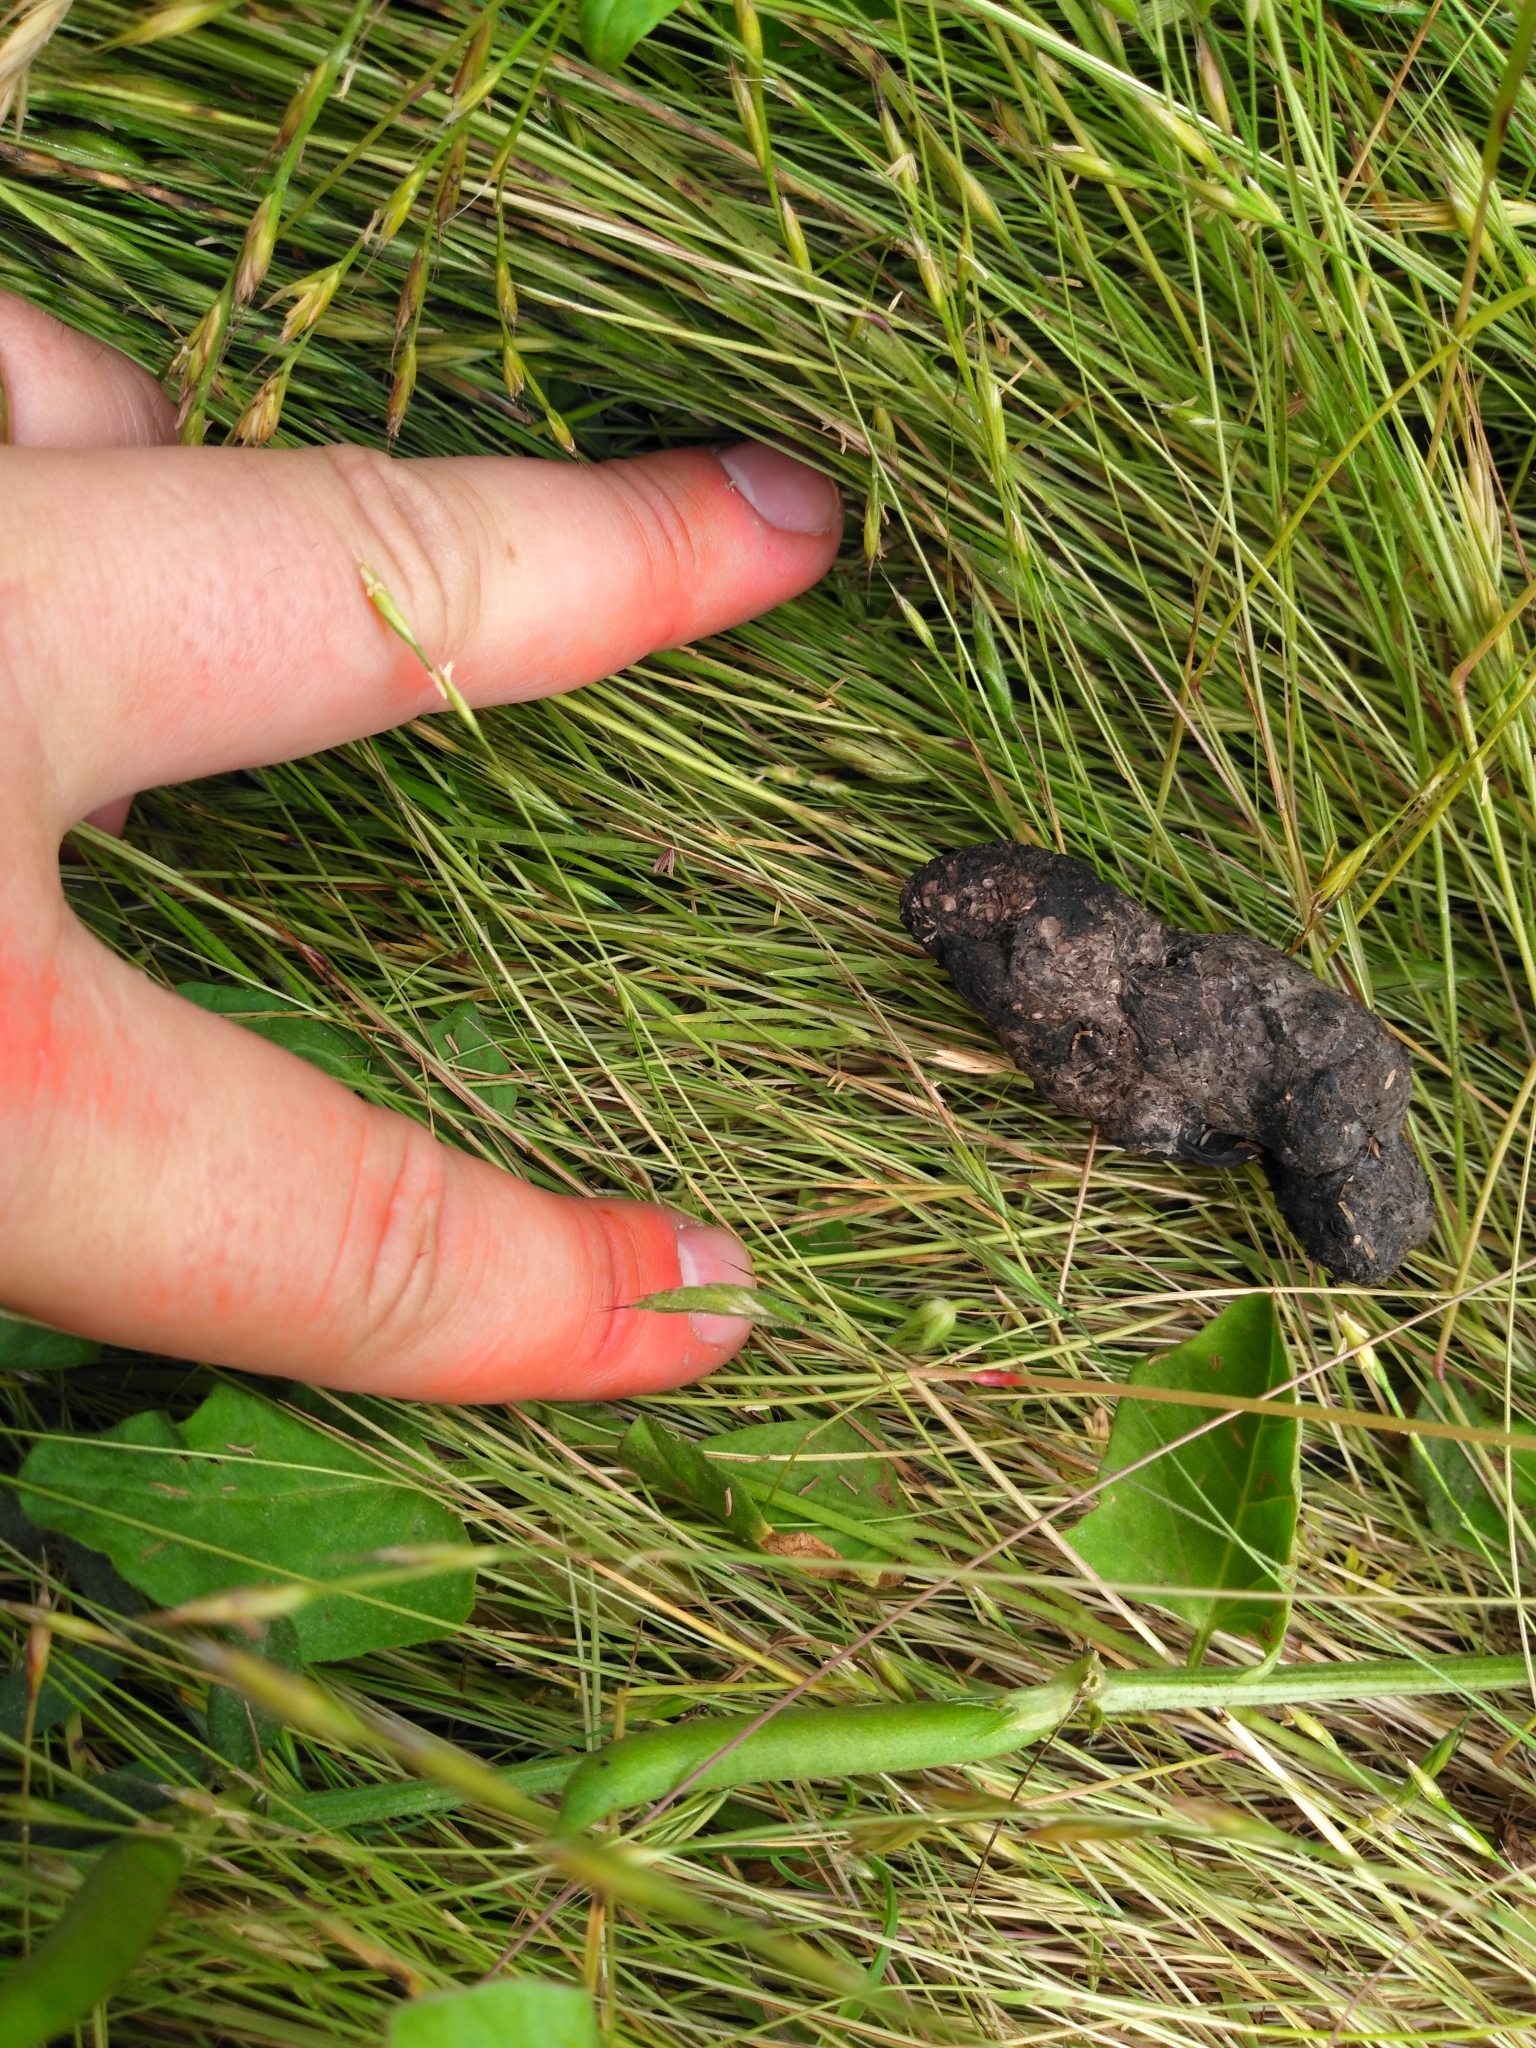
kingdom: Animalia
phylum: Chordata
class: Mammalia
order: Carnivora
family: Canidae
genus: Urocyon
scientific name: Urocyon cinereoargenteus
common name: Gray fox
